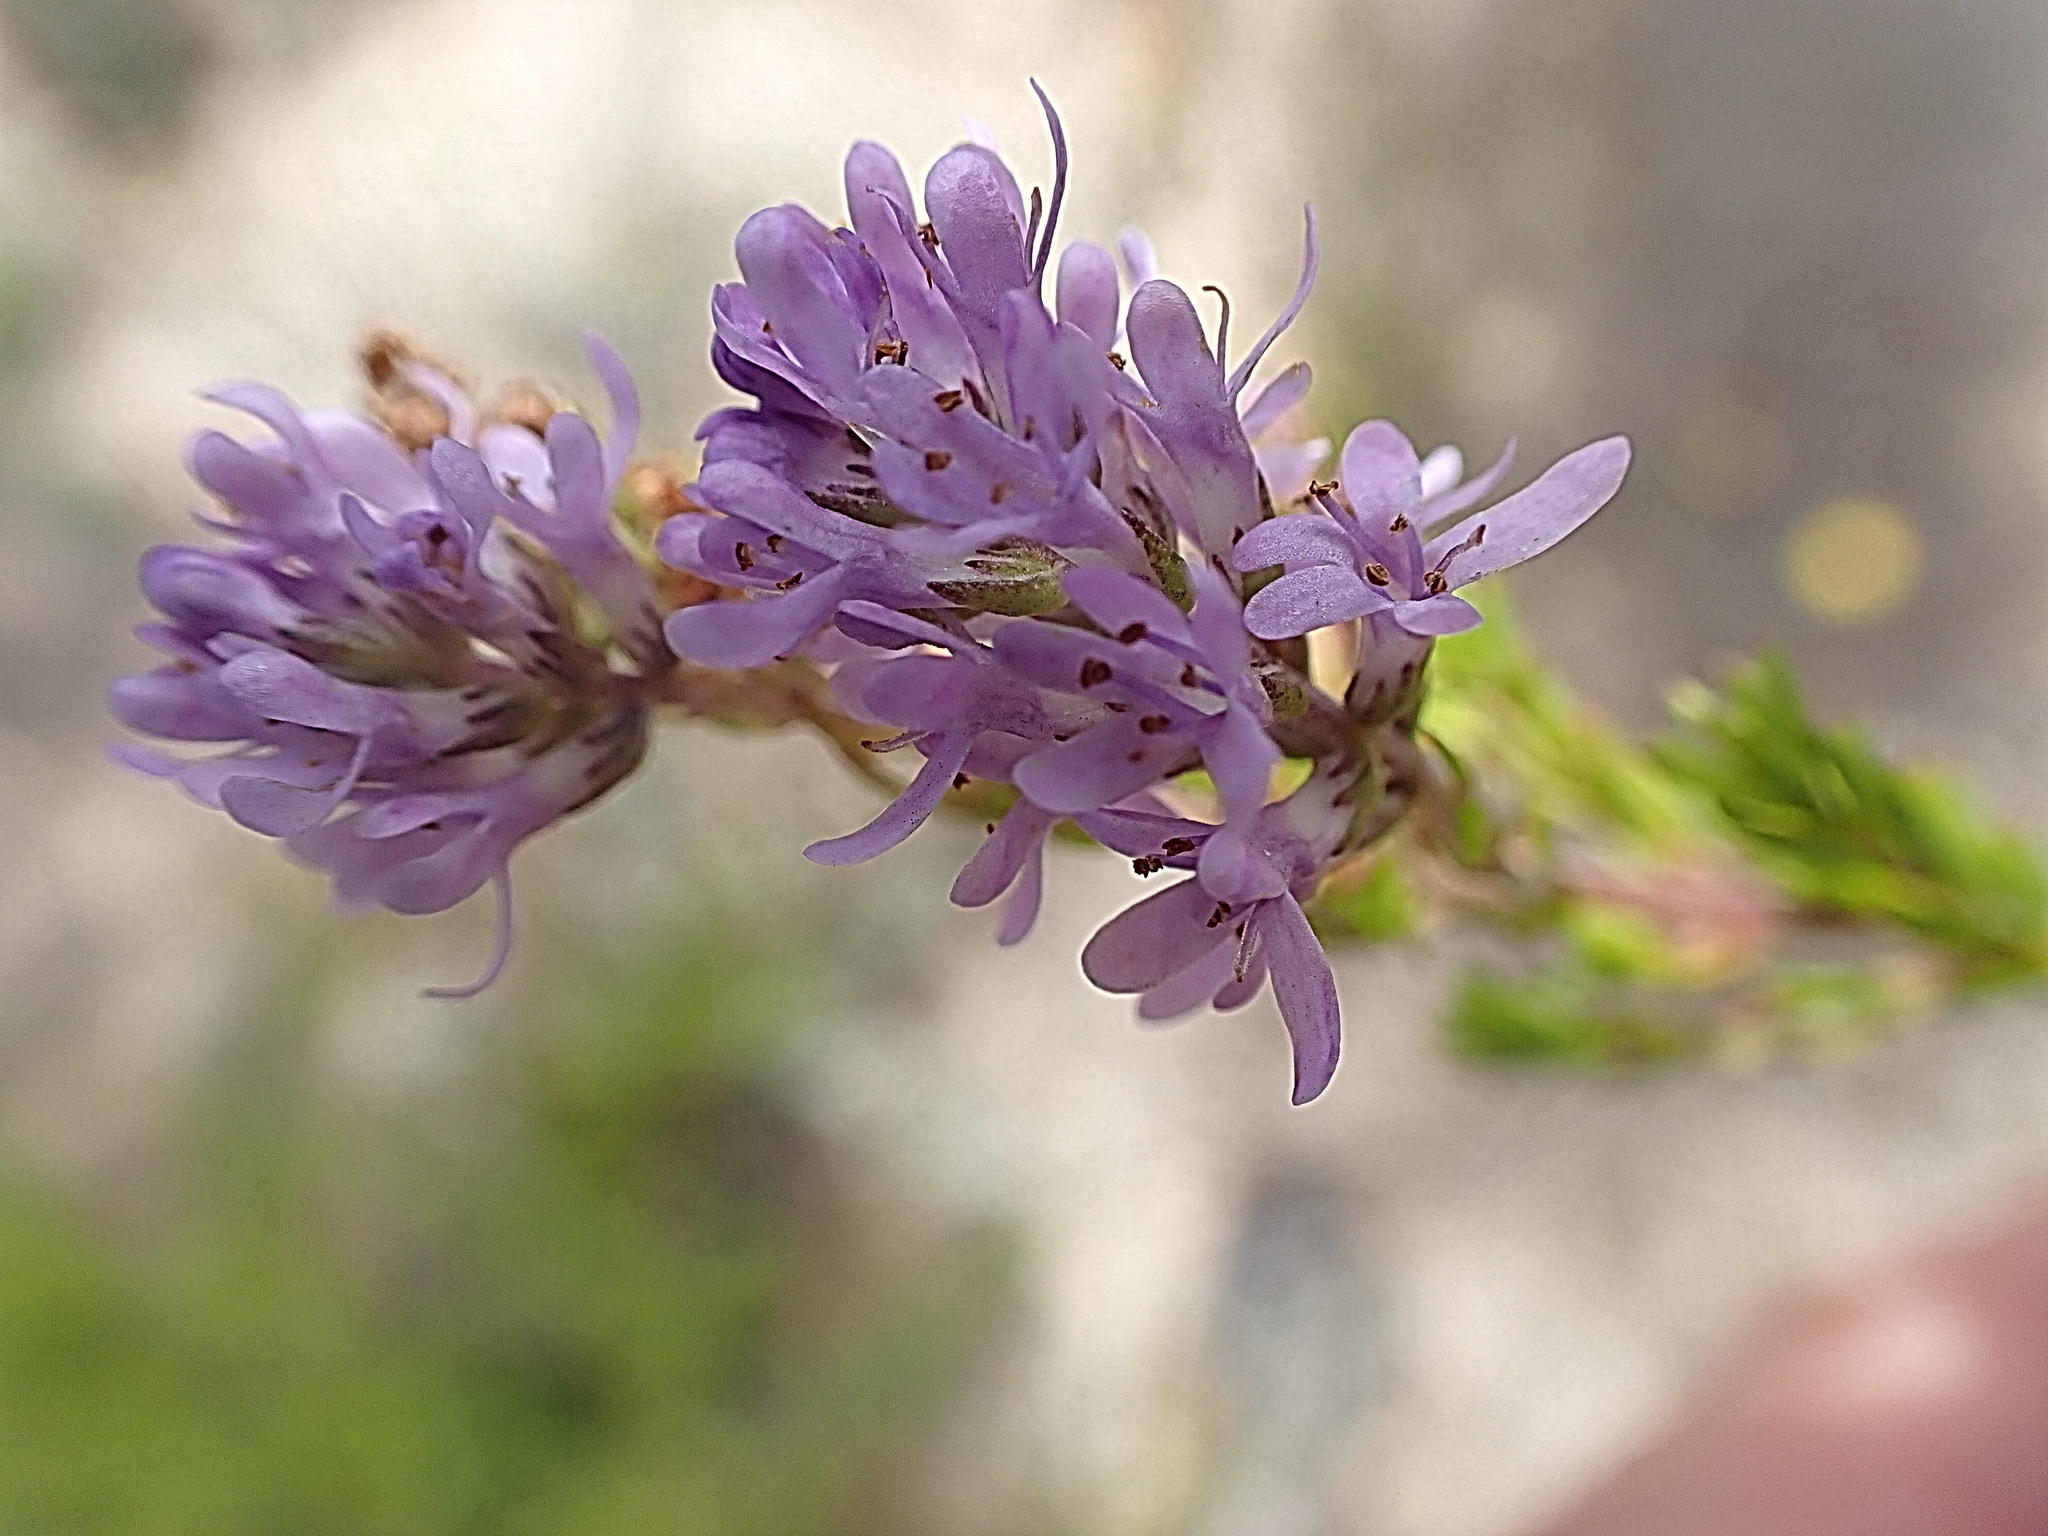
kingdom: Plantae
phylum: Tracheophyta
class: Magnoliopsida
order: Lamiales
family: Scrophulariaceae
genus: Selago
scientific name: Selago canescens
